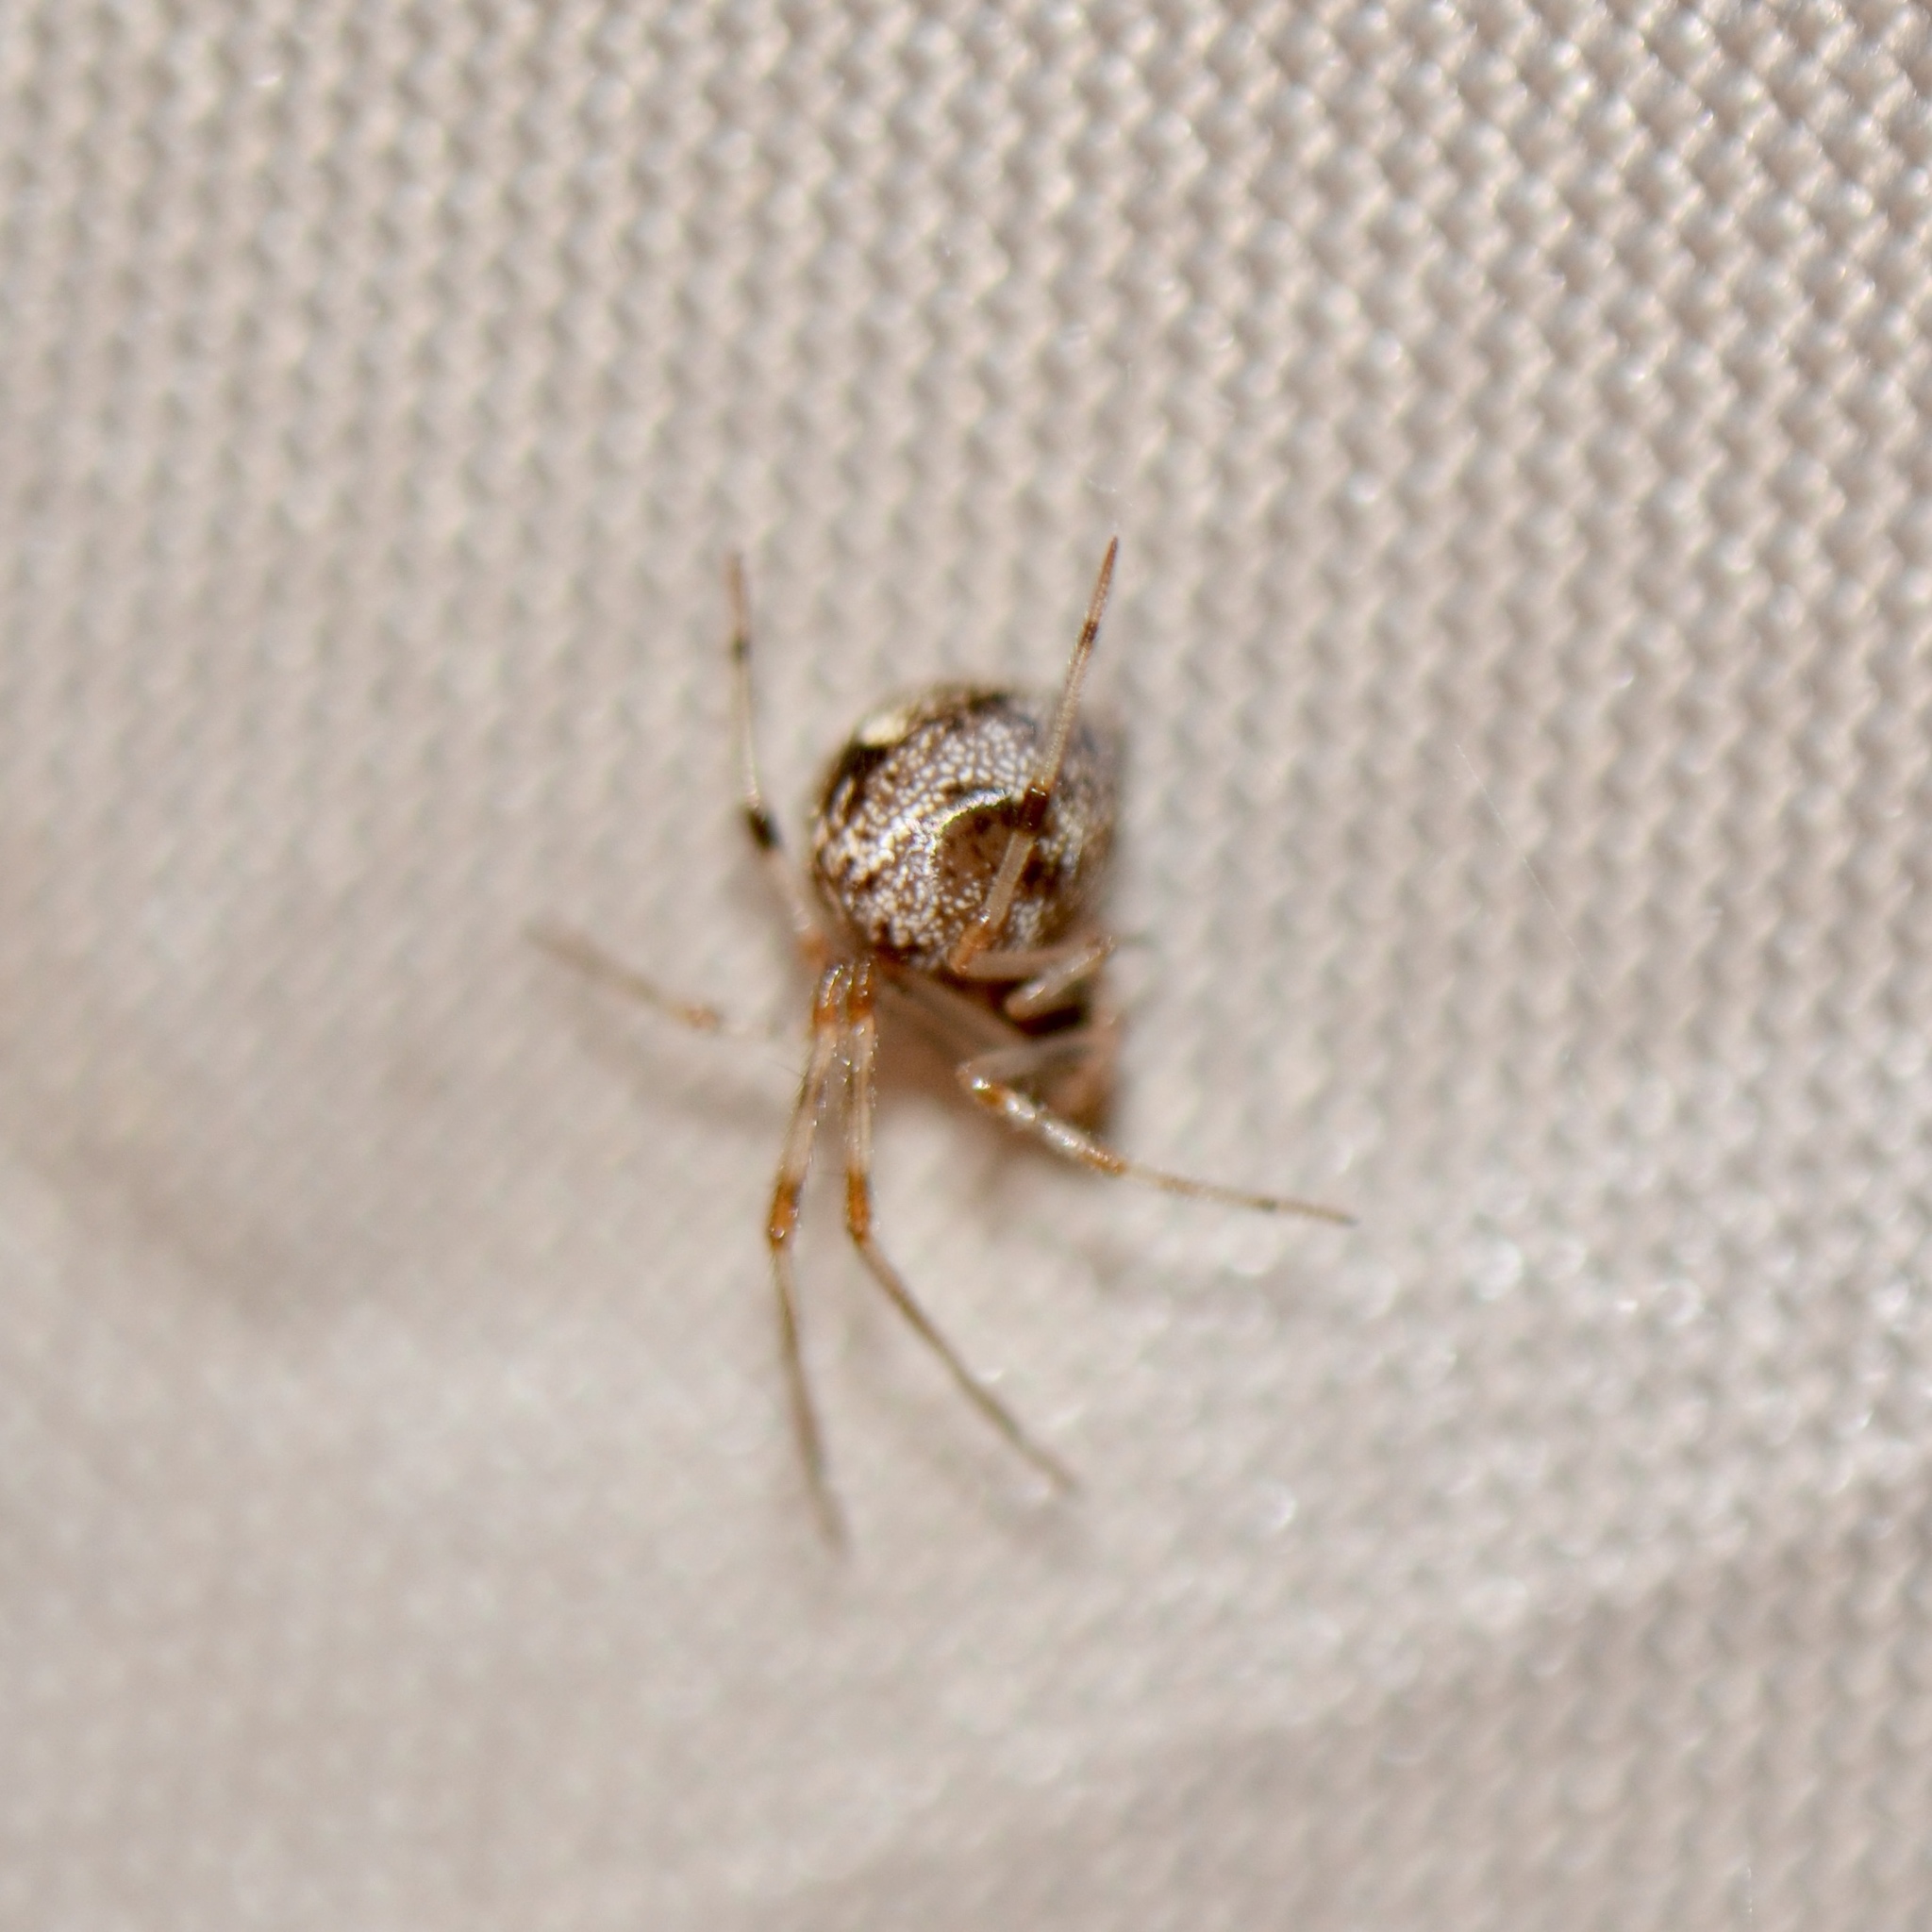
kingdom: Animalia
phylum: Arthropoda
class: Arachnida
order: Araneae
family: Theridiidae
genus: Parasteatoda
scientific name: Parasteatoda tepidariorum
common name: Common house spider
